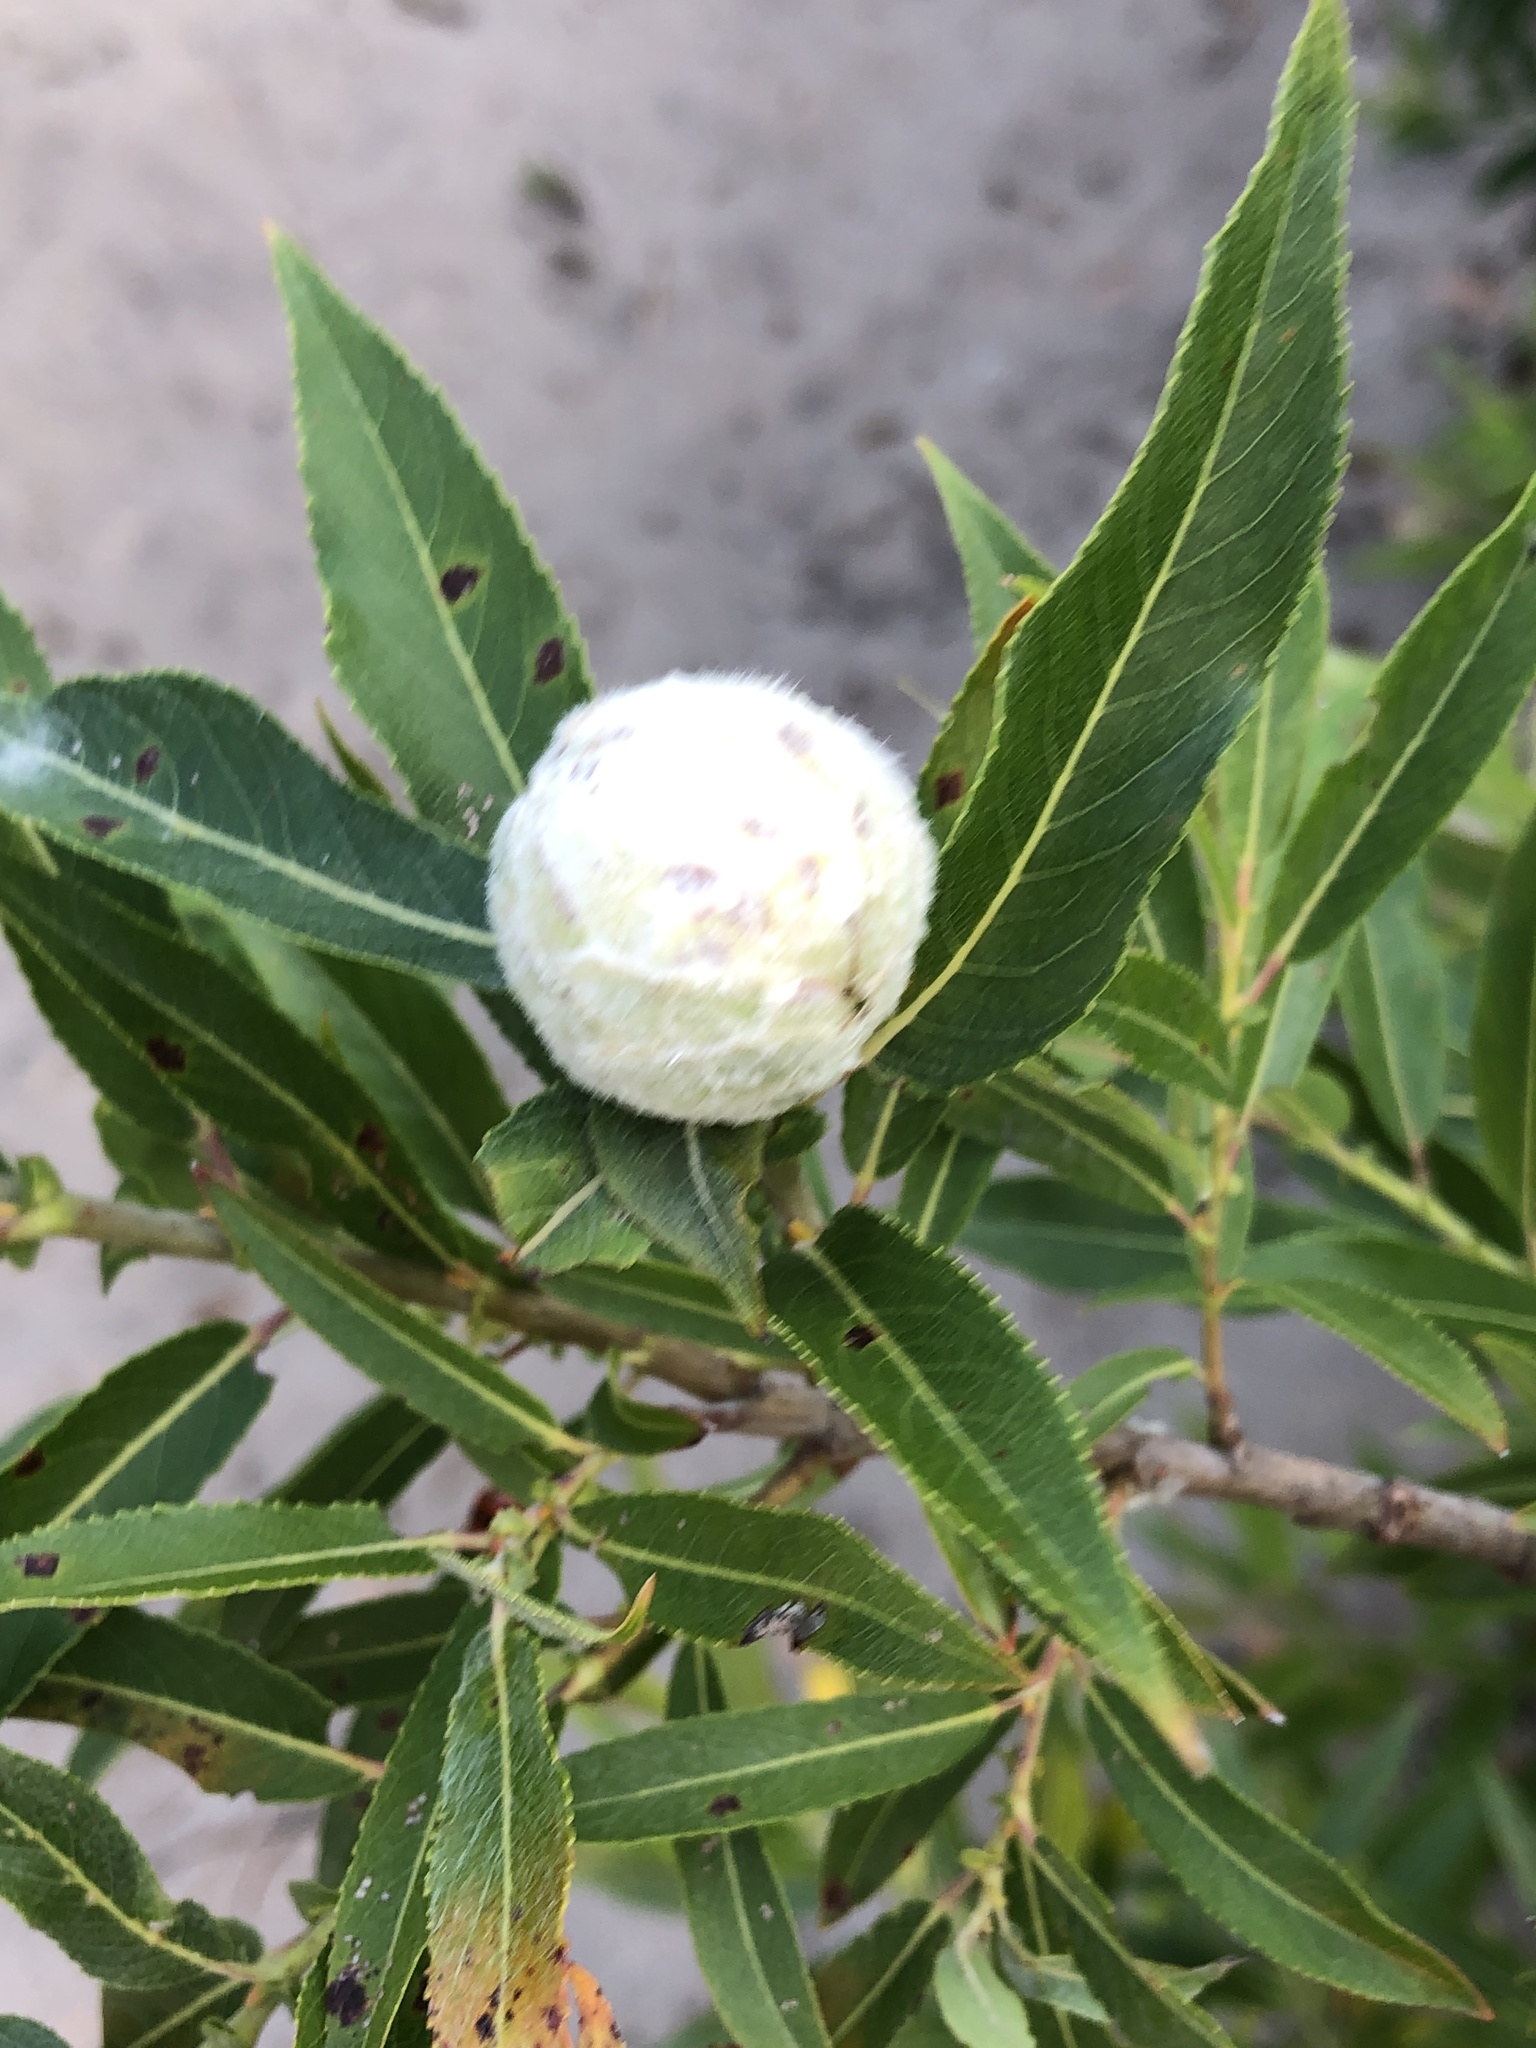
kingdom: Animalia
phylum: Arthropoda
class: Insecta
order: Diptera
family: Cecidomyiidae
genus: Rabdophaga
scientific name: Rabdophaga strobiloides
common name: Willow pinecone gall midge
